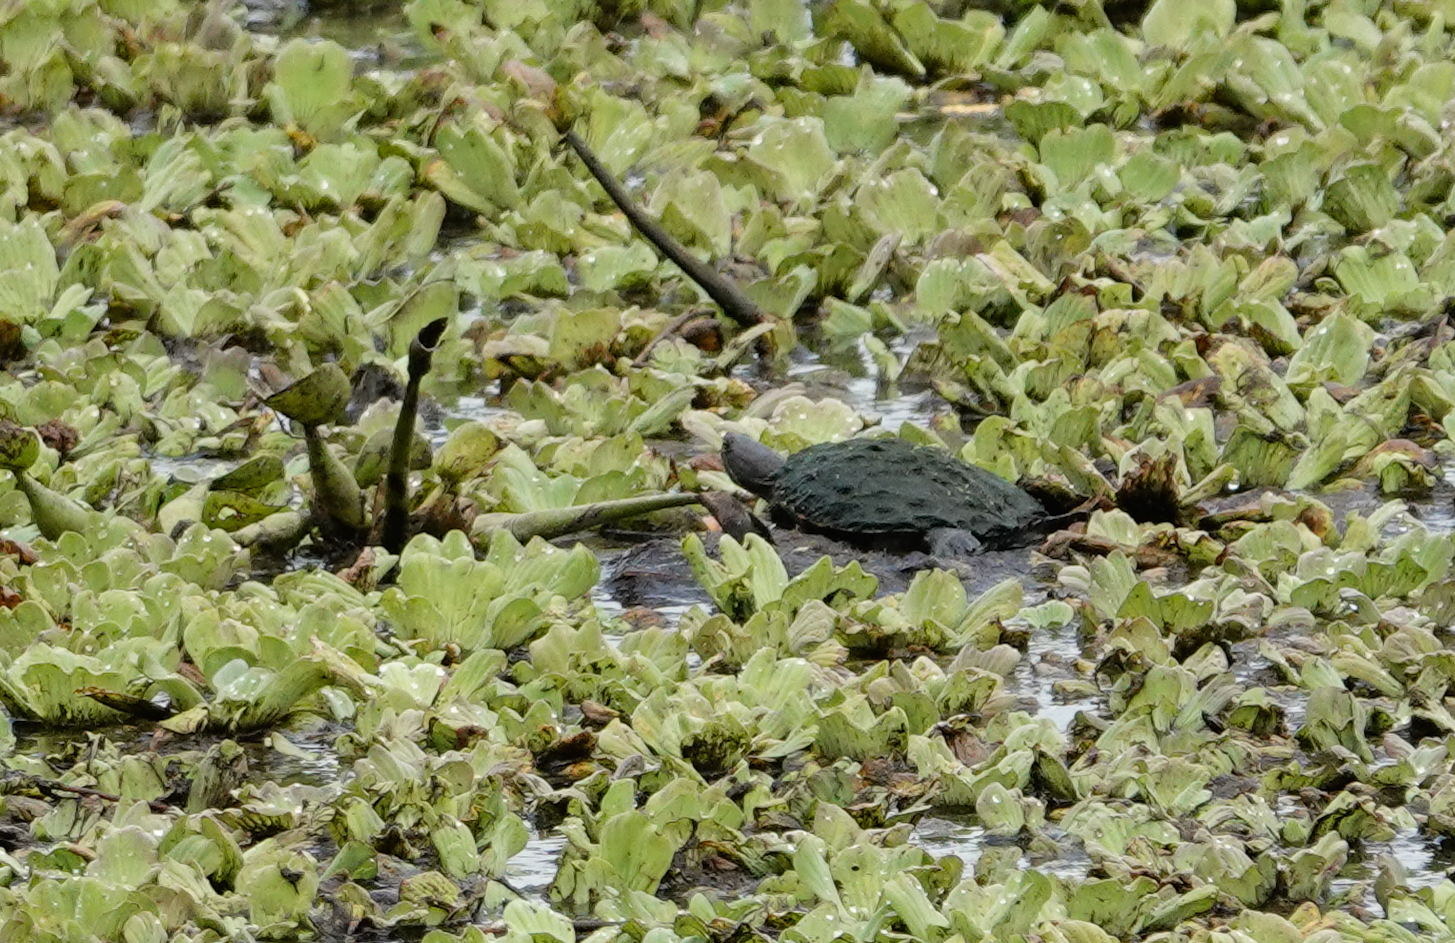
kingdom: Animalia
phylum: Chordata
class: Testudines
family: Emydidae
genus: Trachemys
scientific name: Trachemys stejnegeri
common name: Puerto rican slider
